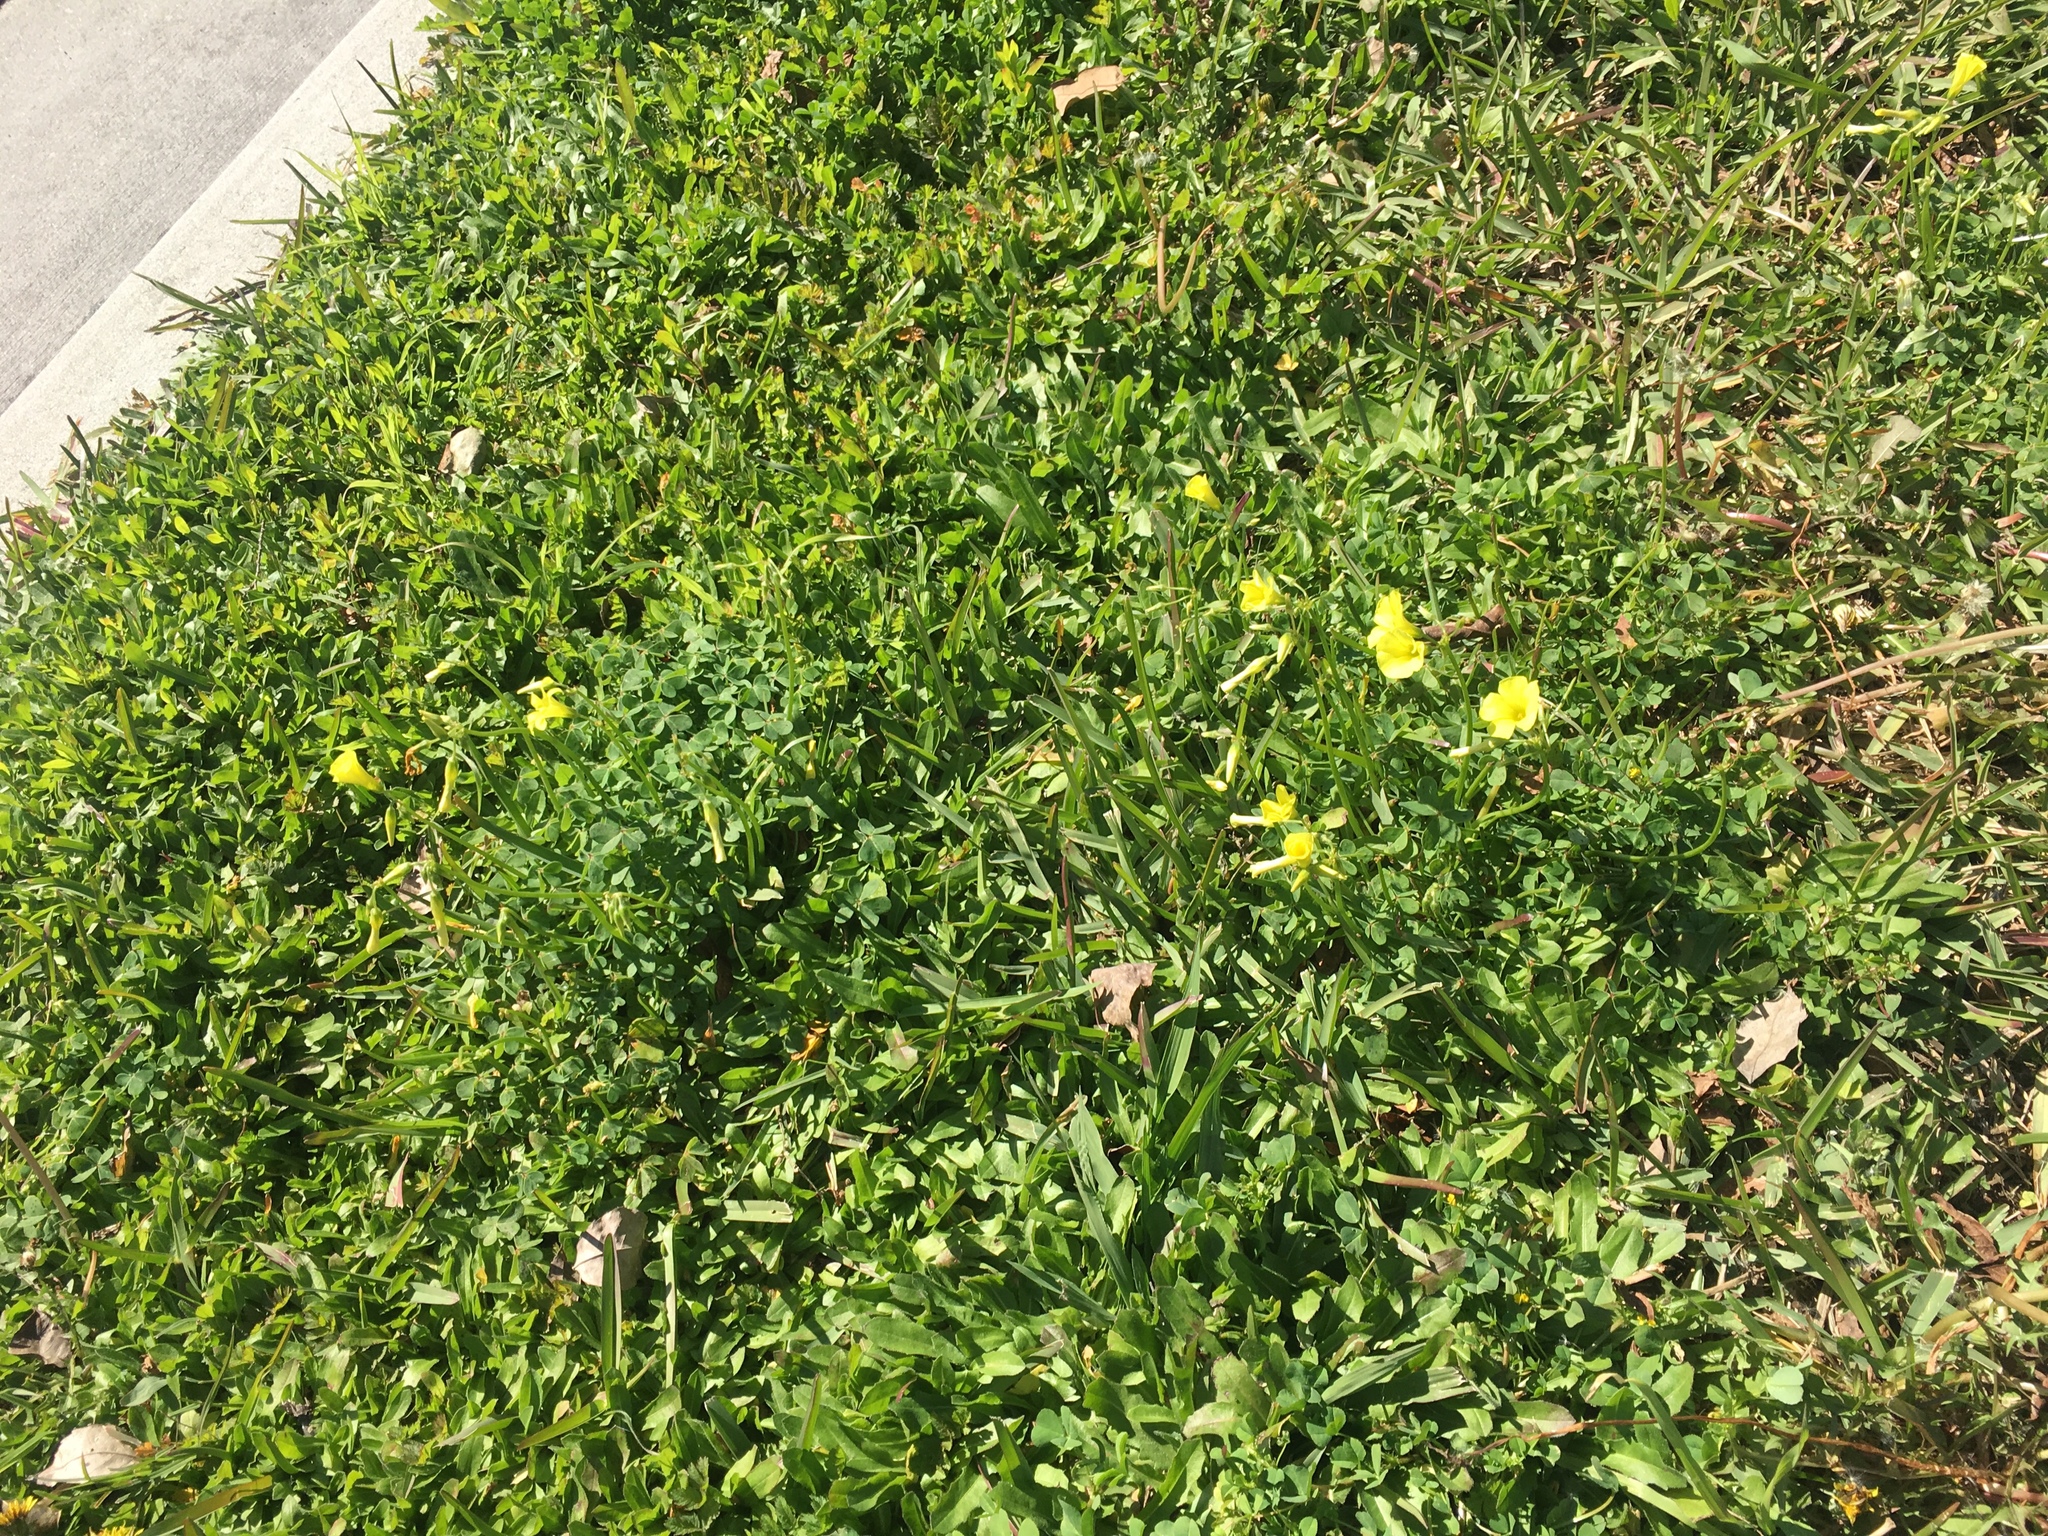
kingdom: Plantae
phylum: Tracheophyta
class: Magnoliopsida
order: Oxalidales
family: Oxalidaceae
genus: Oxalis
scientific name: Oxalis pes-caprae
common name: Bermuda-buttercup
